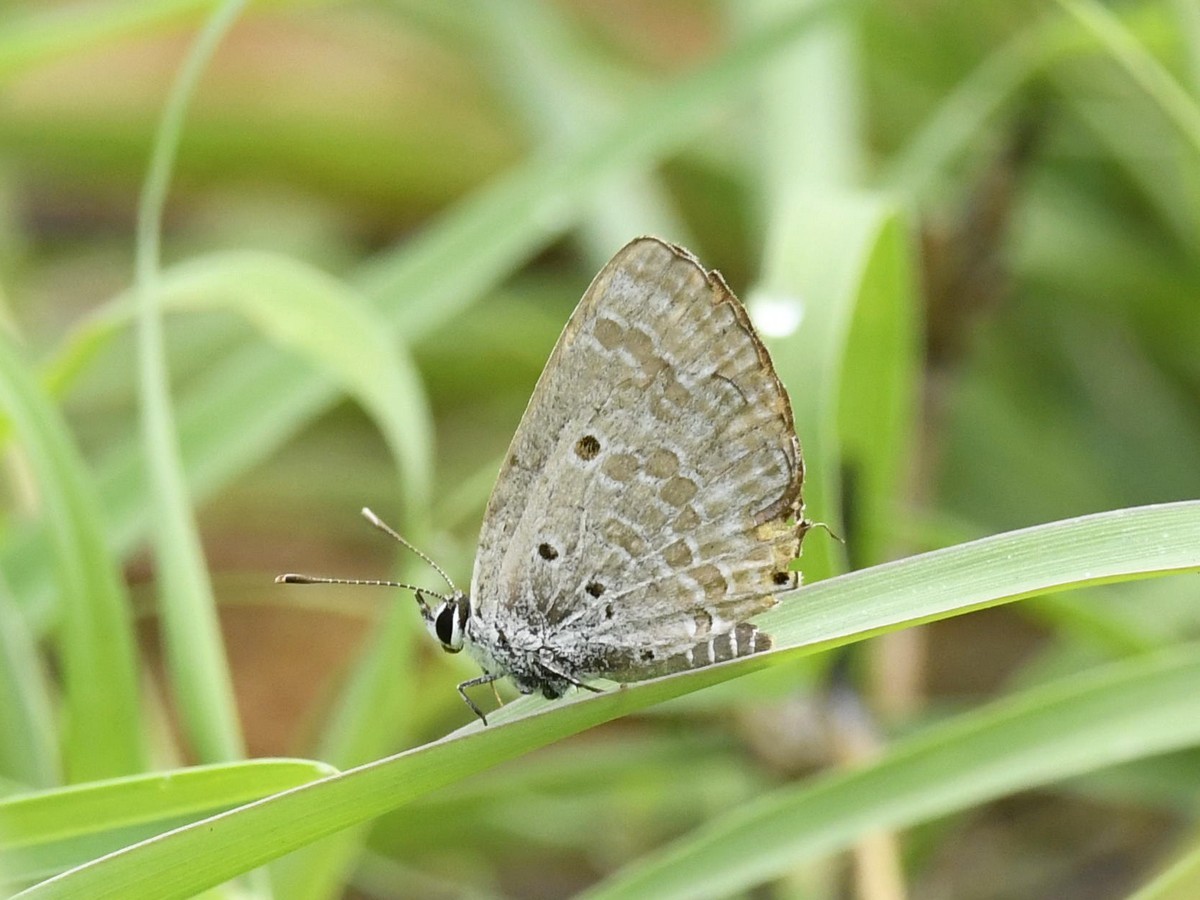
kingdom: Animalia
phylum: Arthropoda
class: Insecta
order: Lepidoptera
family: Lycaenidae
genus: Luthrodes
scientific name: Luthrodes pandava
